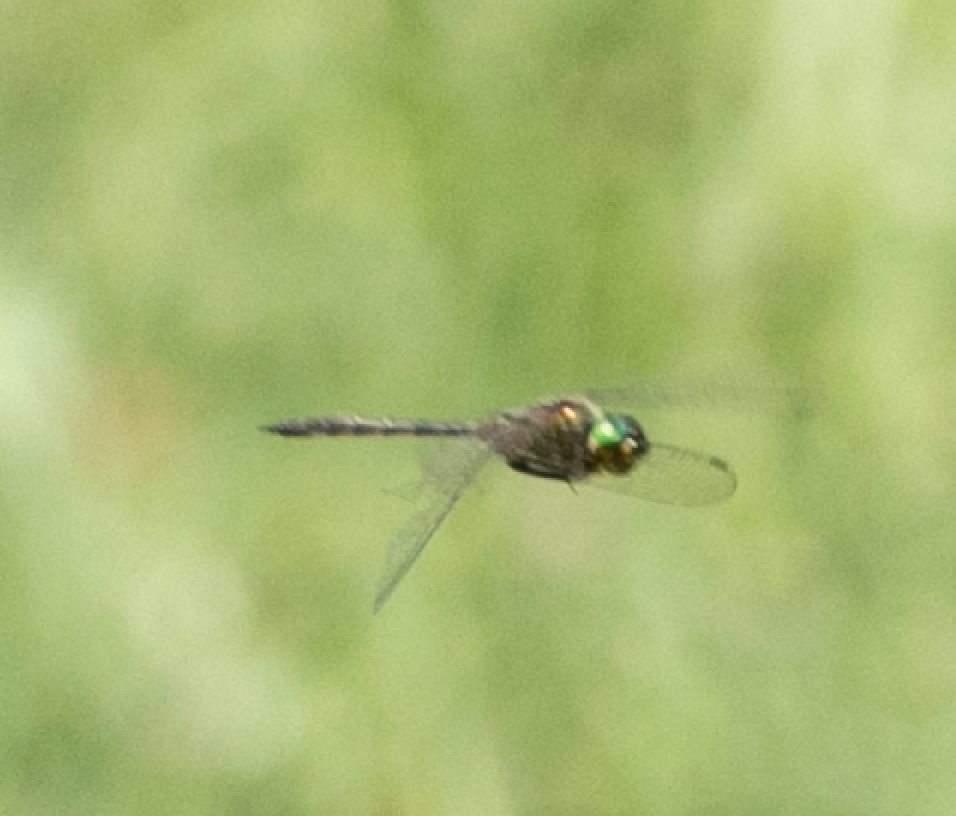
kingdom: Animalia
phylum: Arthropoda
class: Insecta
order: Odonata
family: Corduliidae
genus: Somatochlora
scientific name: Somatochlora flavomaculata
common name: Yellow-spotted emerald
